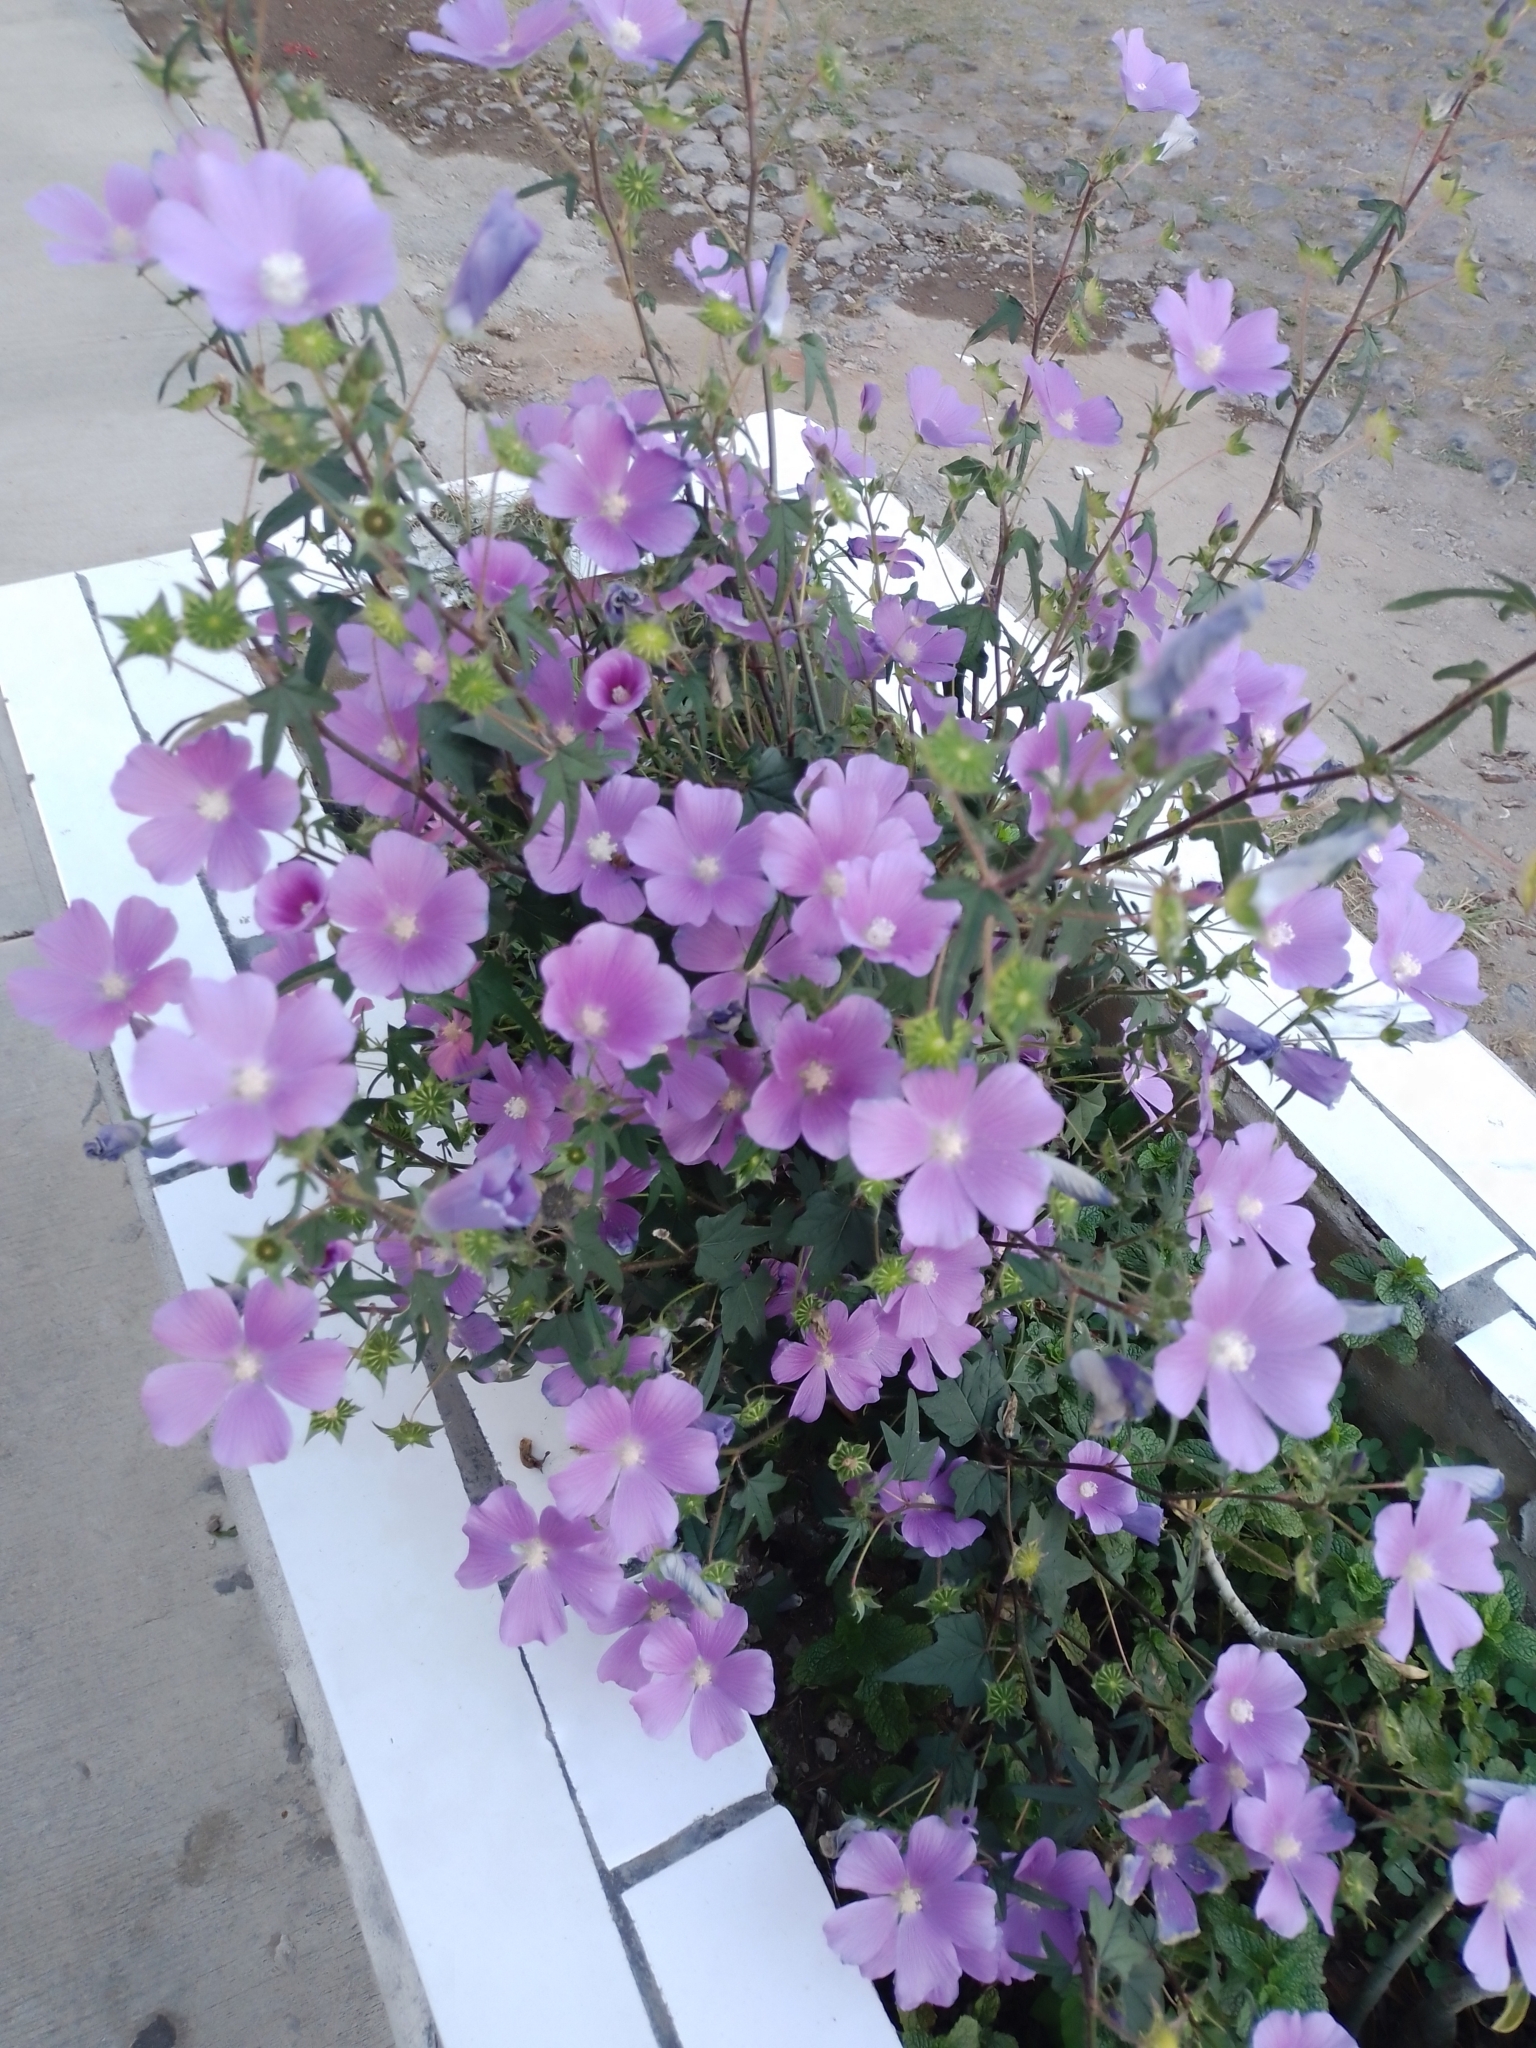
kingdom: Plantae
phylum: Tracheophyta
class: Magnoliopsida
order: Malvales
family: Malvaceae
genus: Anoda
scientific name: Anoda cristata
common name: Spurred anoda
